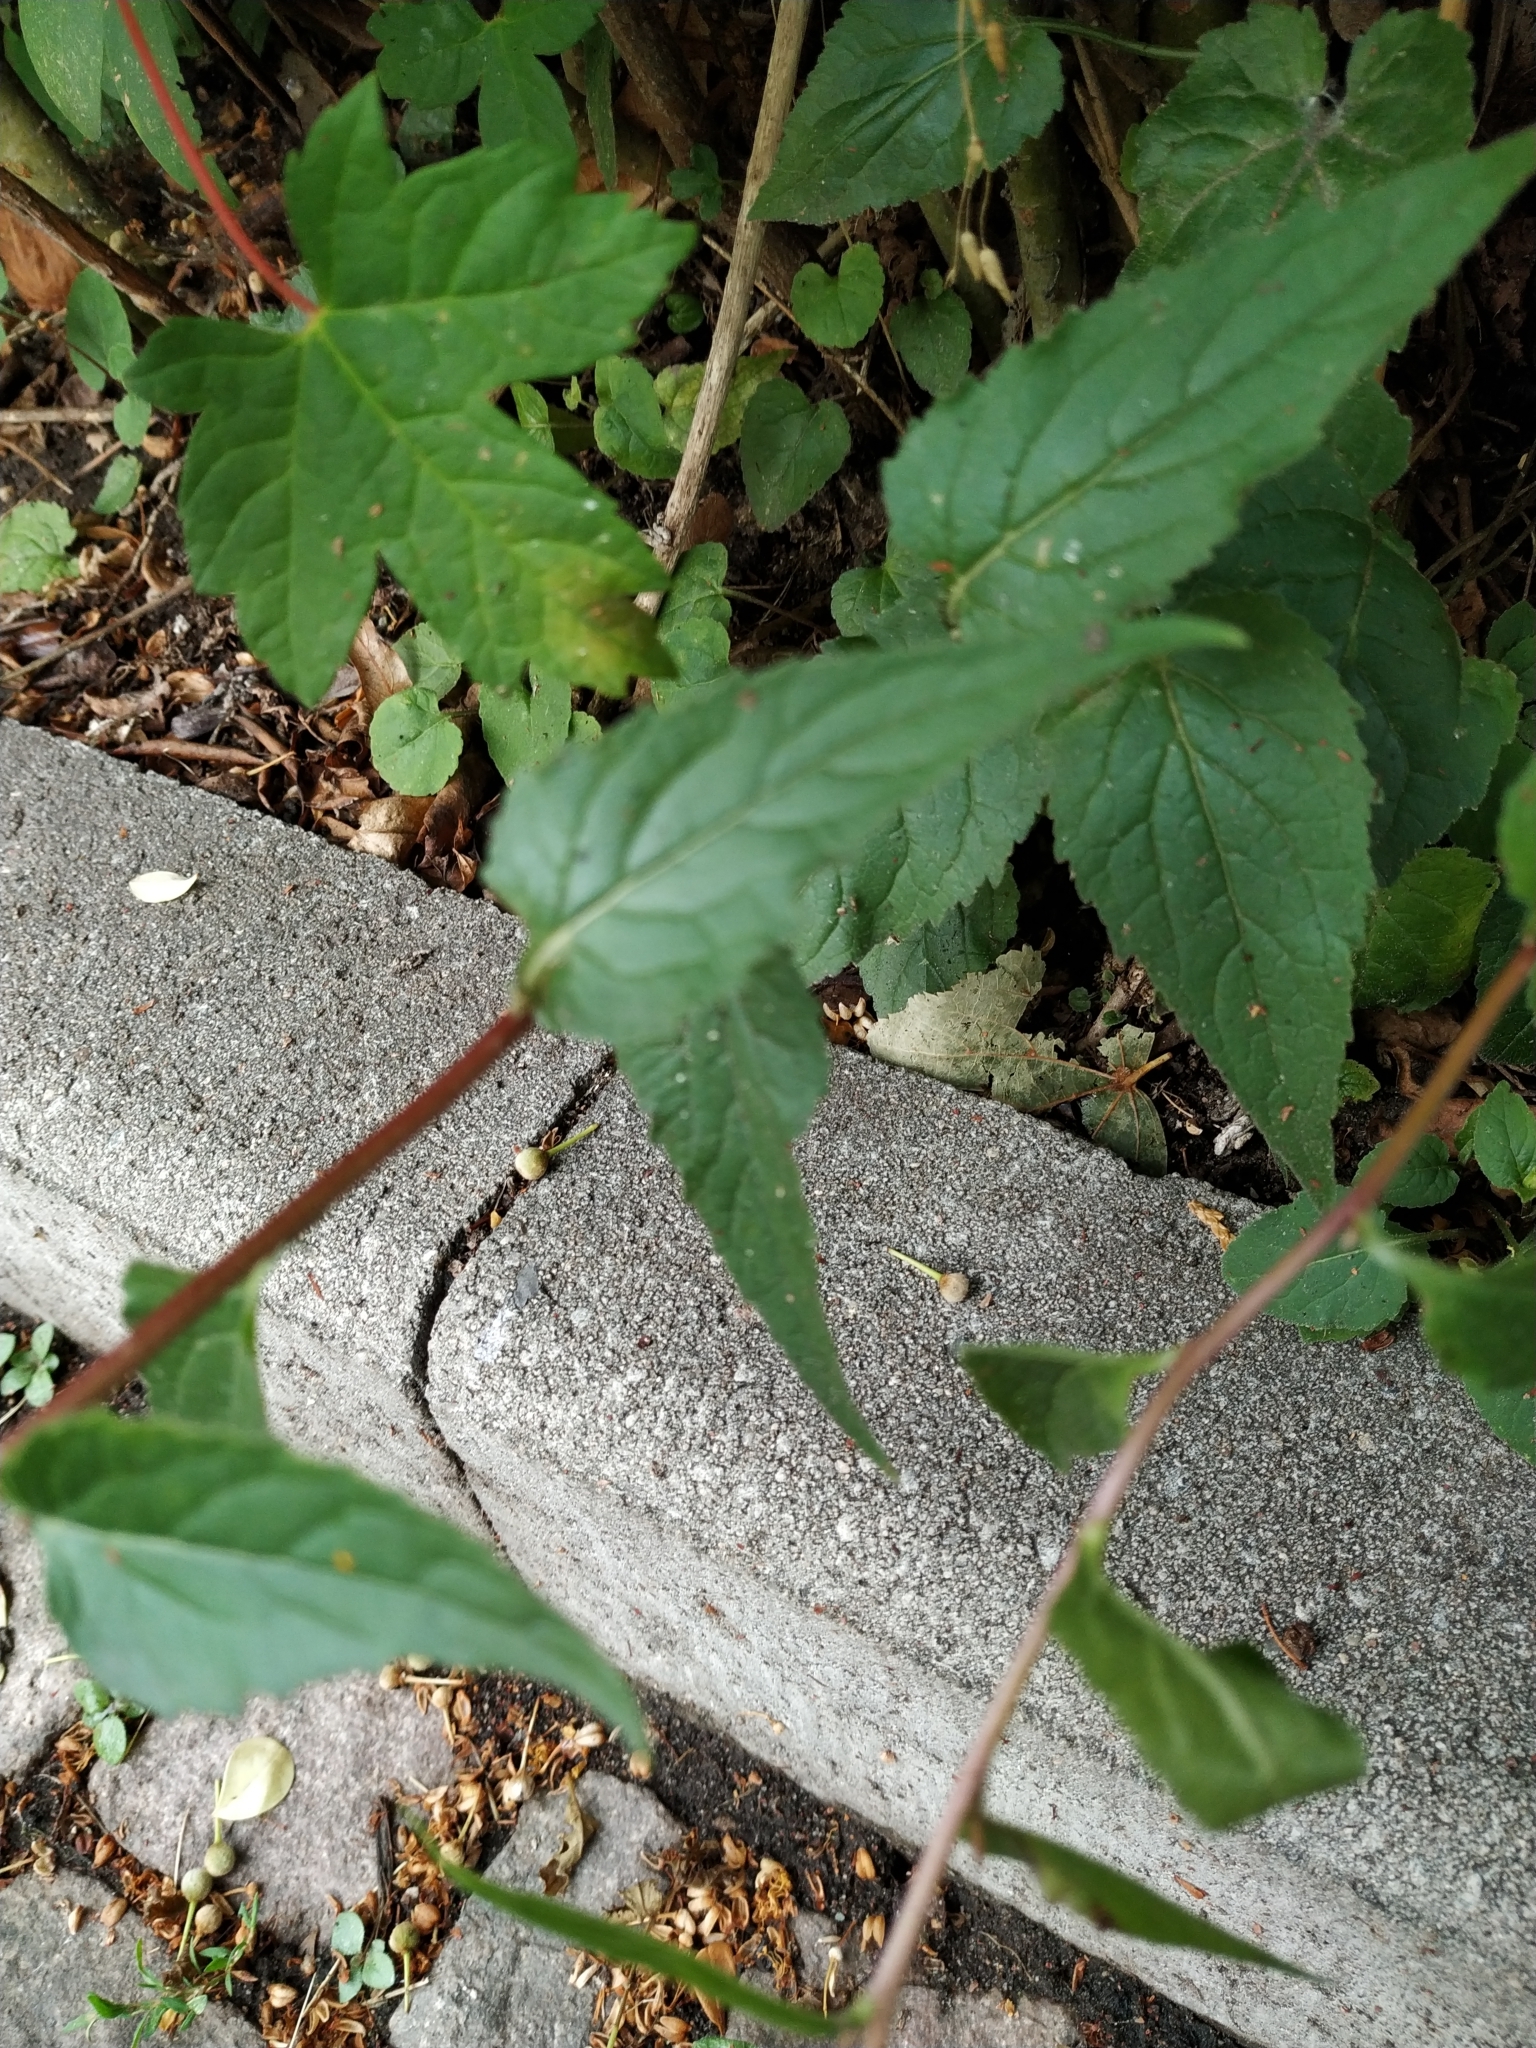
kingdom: Plantae
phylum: Tracheophyta
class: Magnoliopsida
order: Asterales
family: Campanulaceae
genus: Campanula
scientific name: Campanula rapunculoides
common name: Creeping bellflower
